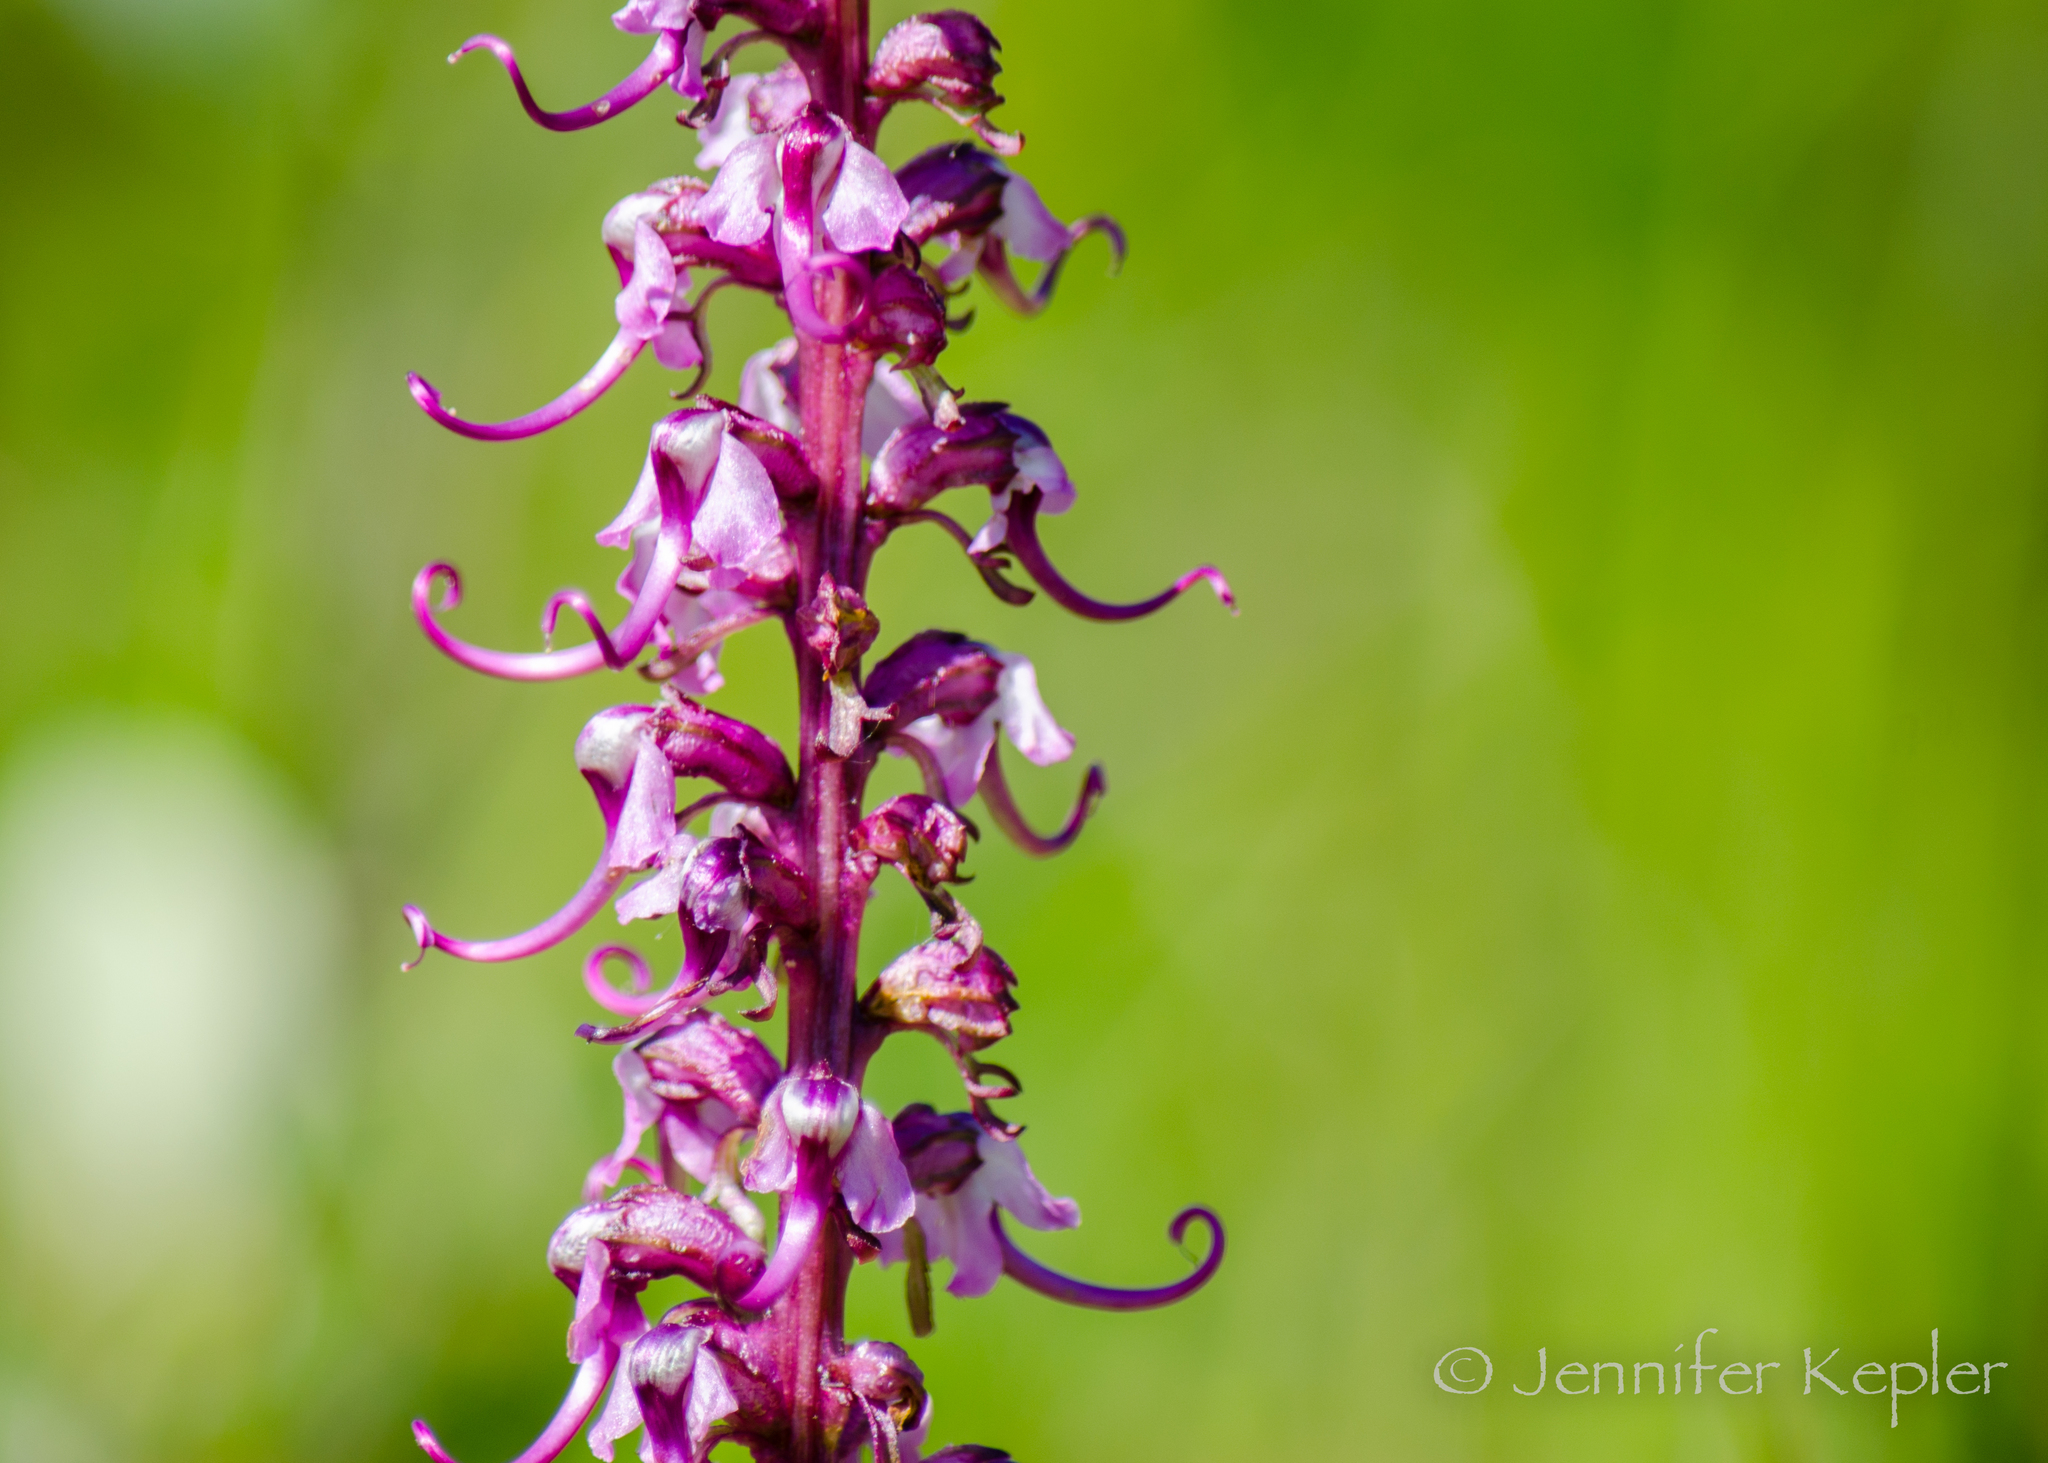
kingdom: Plantae
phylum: Tracheophyta
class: Magnoliopsida
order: Lamiales
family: Orobanchaceae
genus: Pedicularis
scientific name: Pedicularis groenlandica
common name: Elephant's-head
